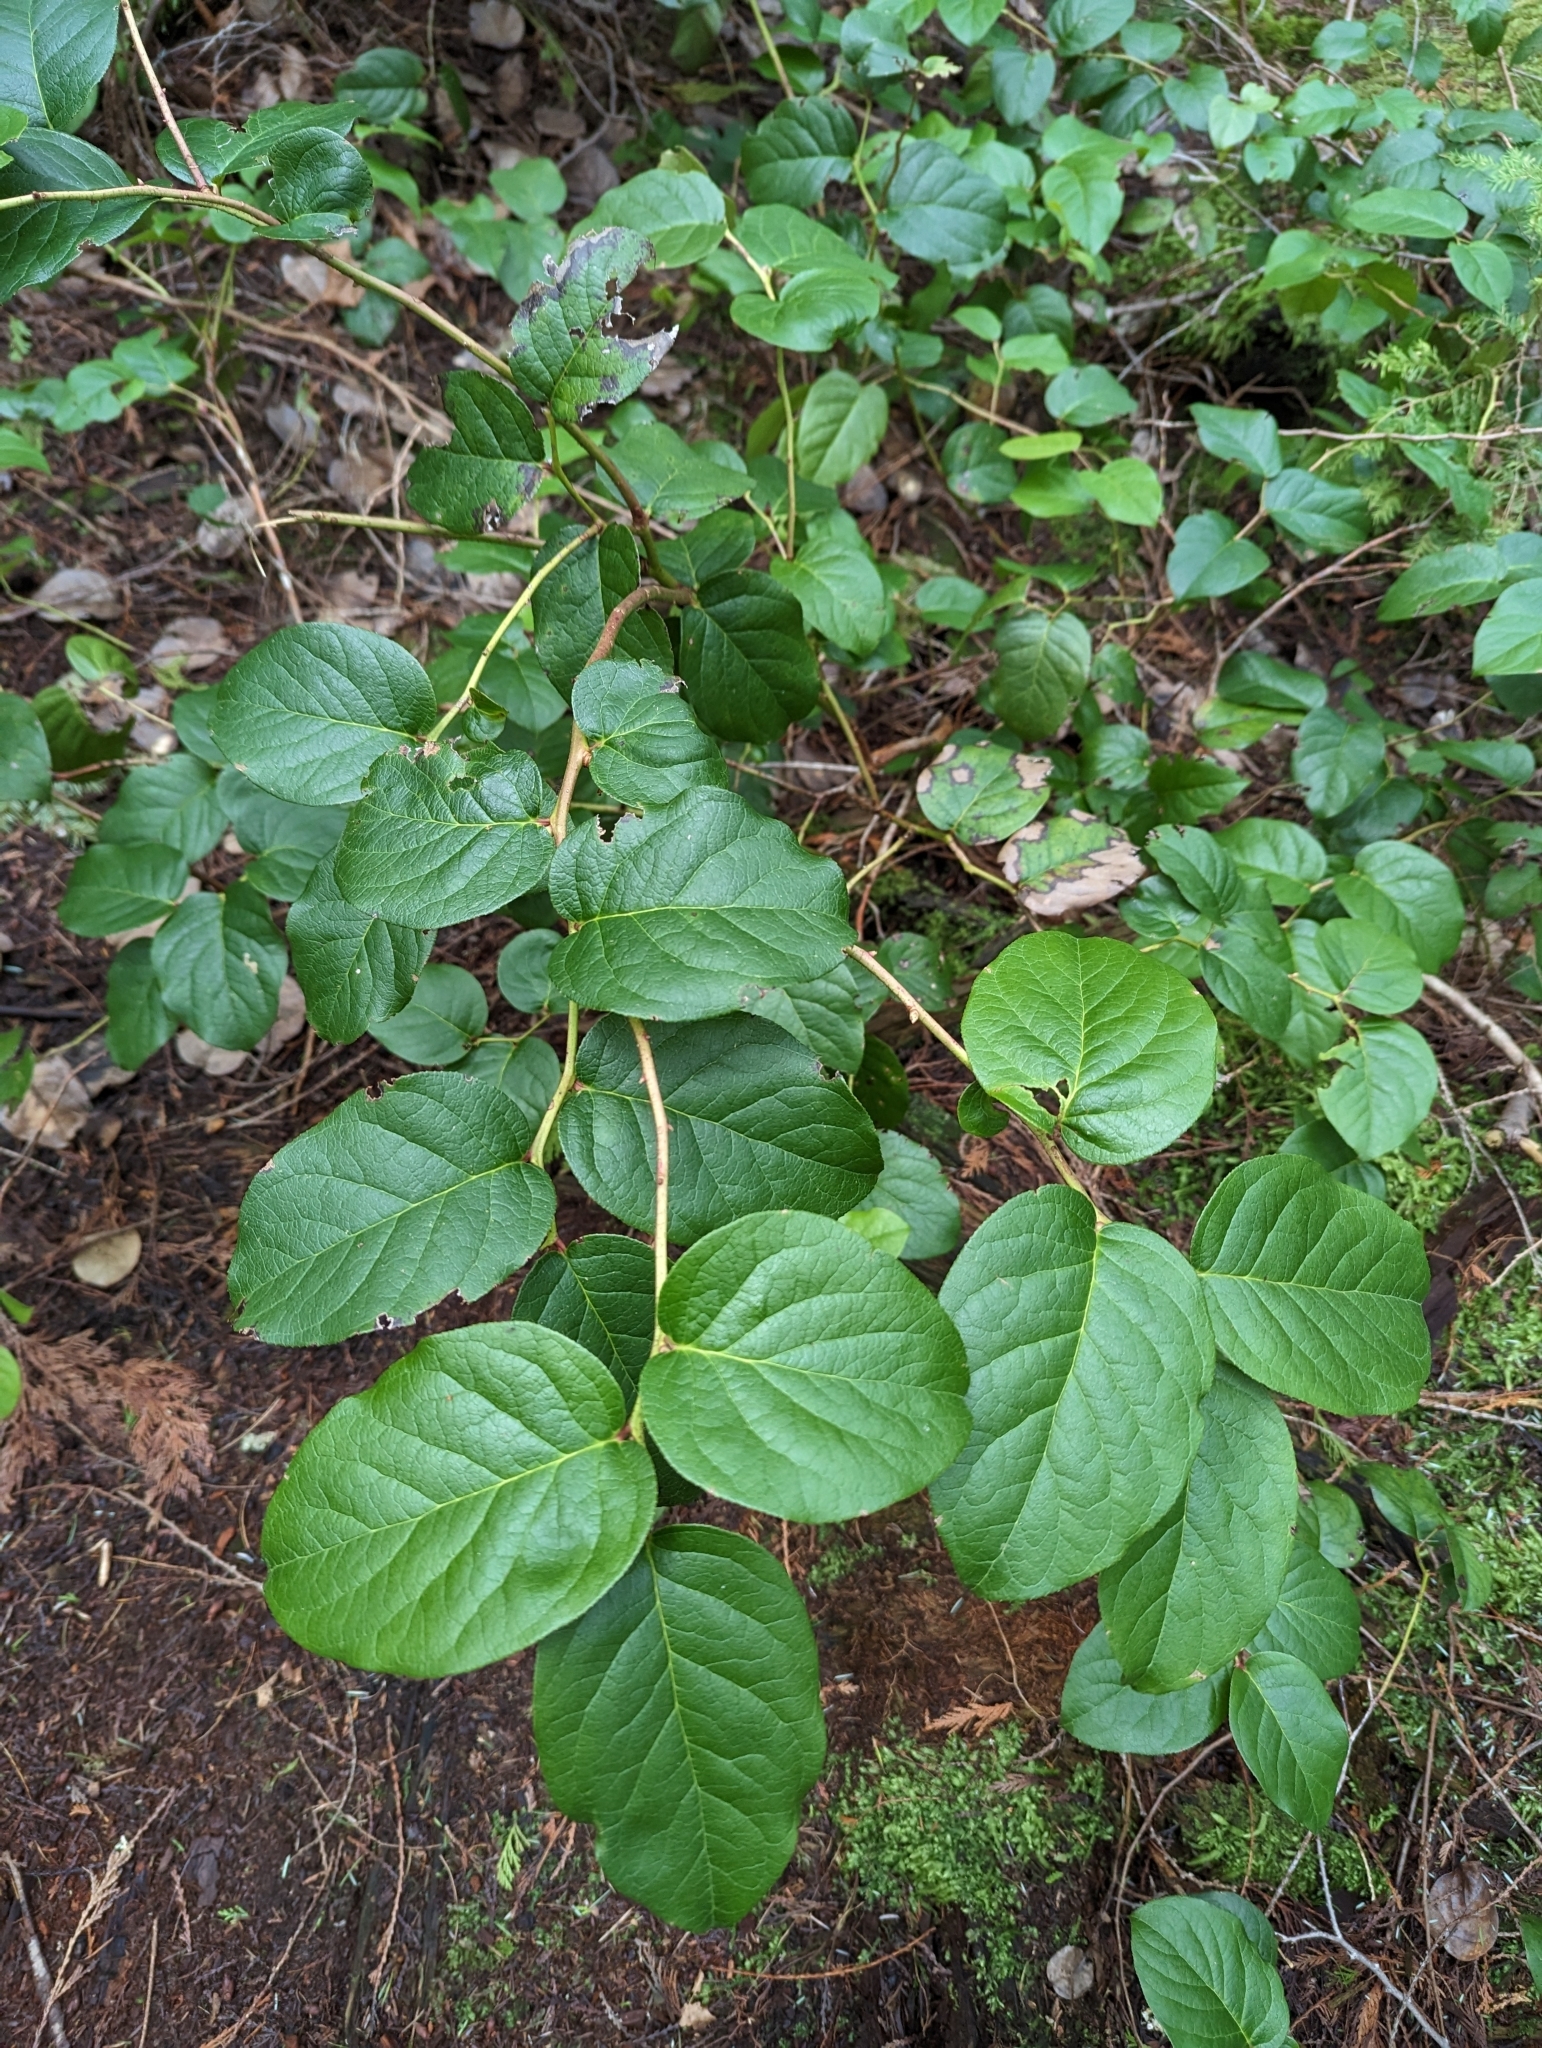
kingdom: Plantae
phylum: Tracheophyta
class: Magnoliopsida
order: Ericales
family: Ericaceae
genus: Gaultheria
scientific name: Gaultheria shallon
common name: Shallon
